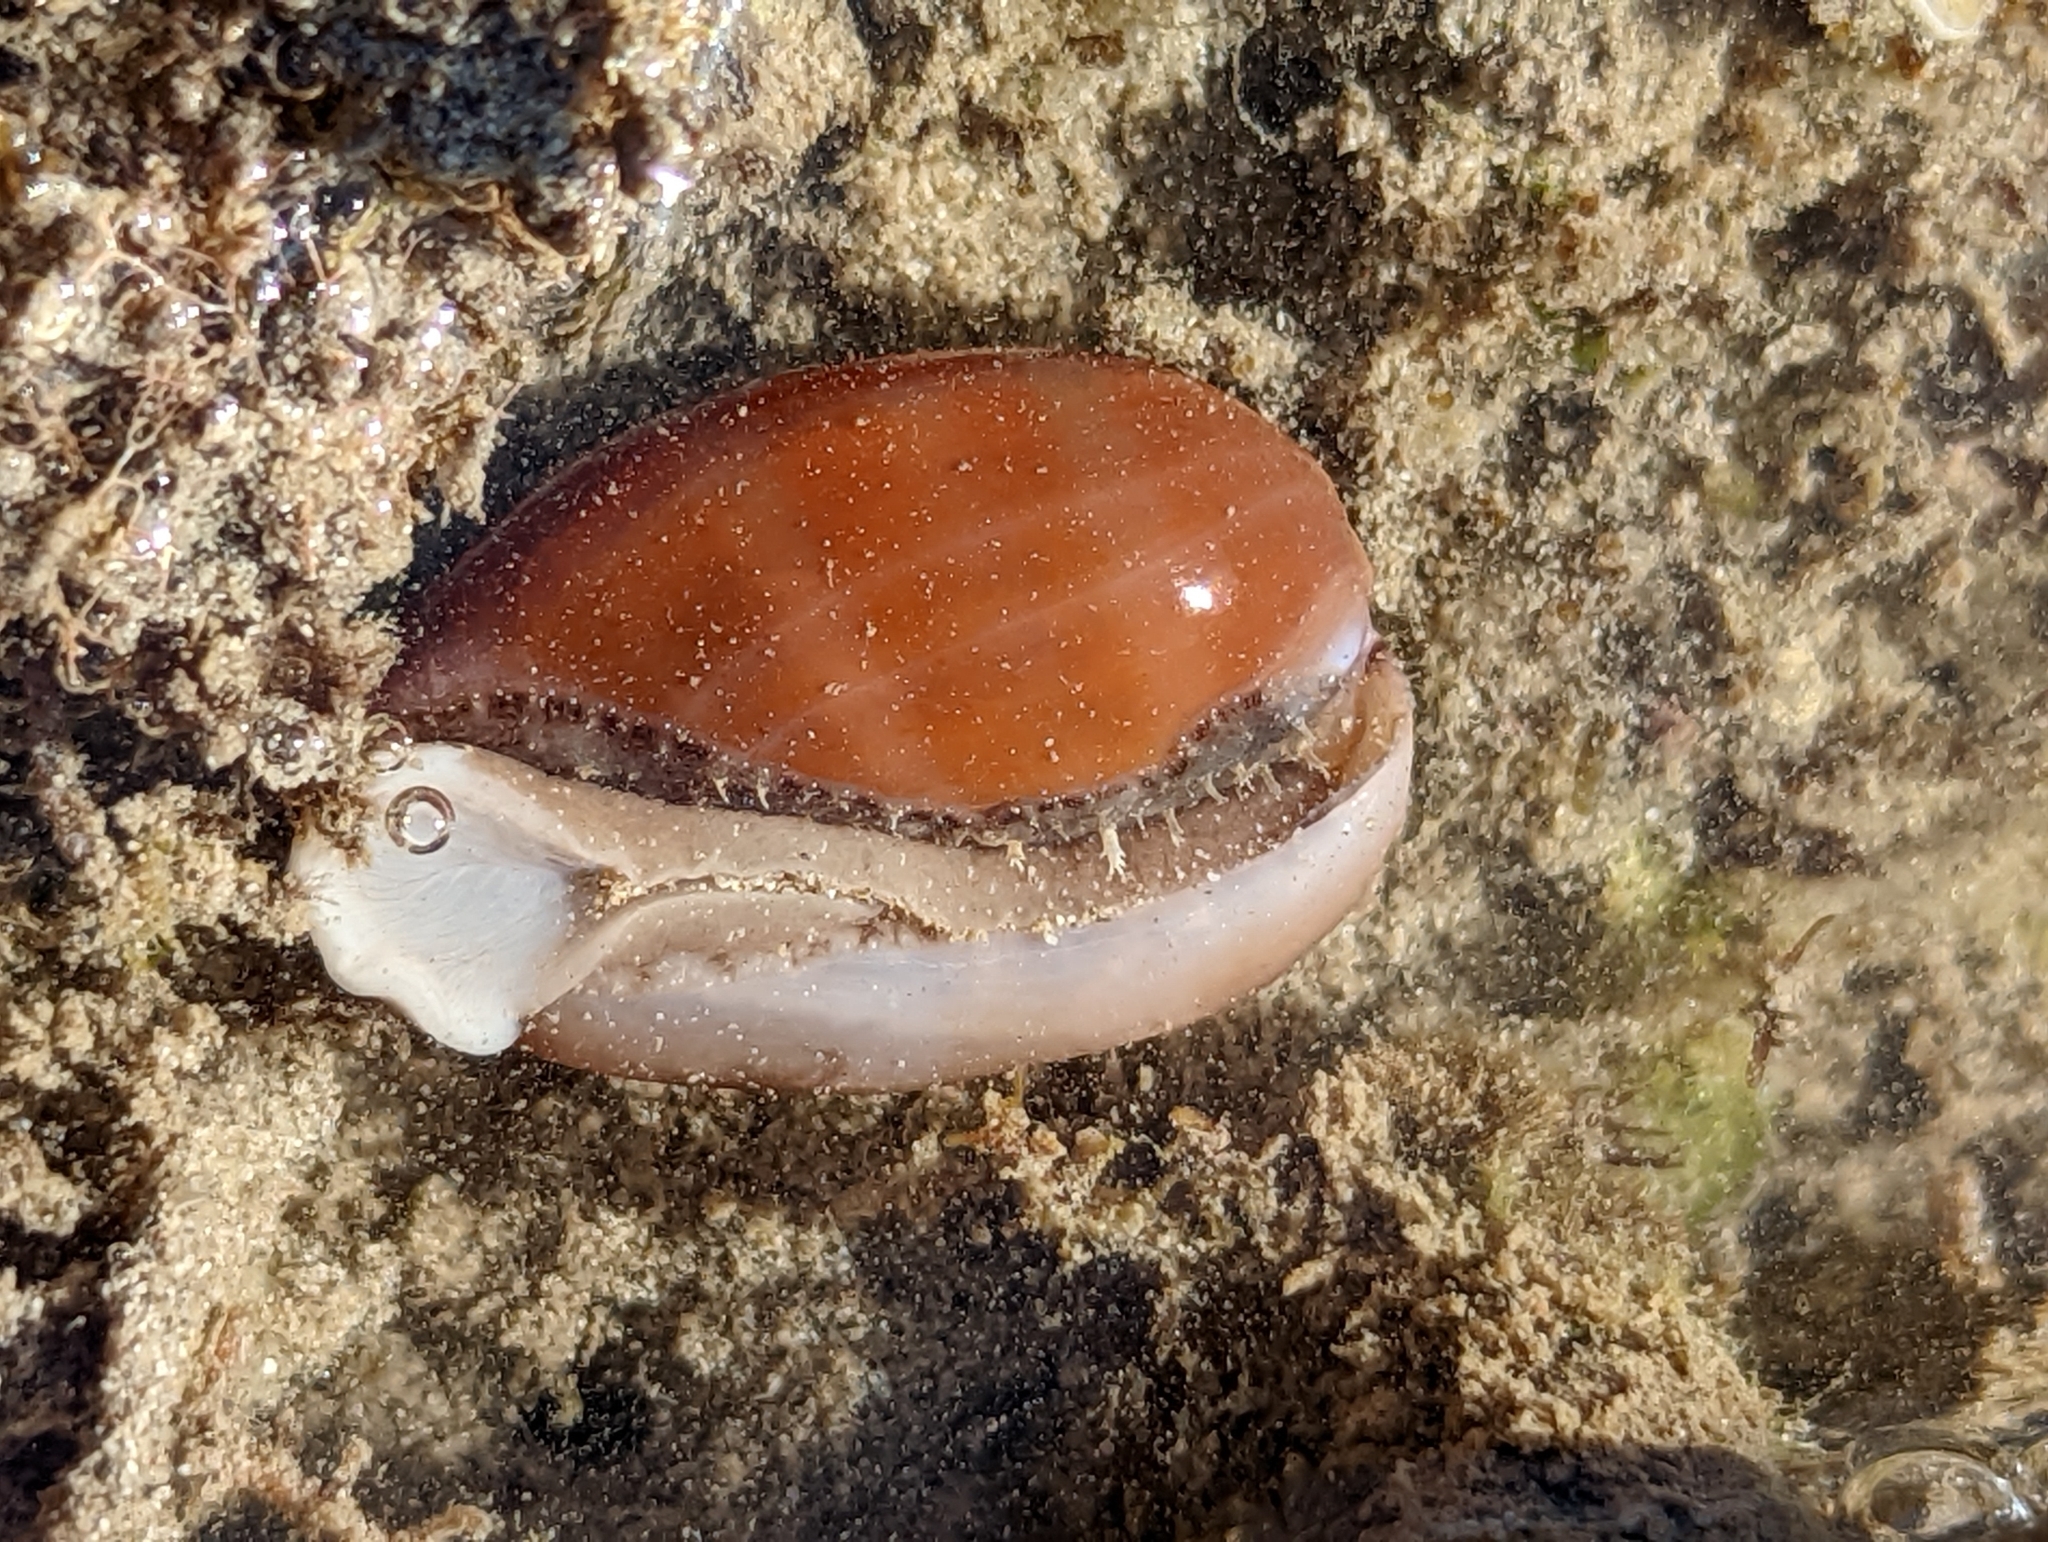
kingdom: Animalia
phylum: Mollusca
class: Gastropoda
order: Littorinimorpha
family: Cypraeidae
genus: Lyncina
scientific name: Lyncina carneola
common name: Purple-mouthed cowry
